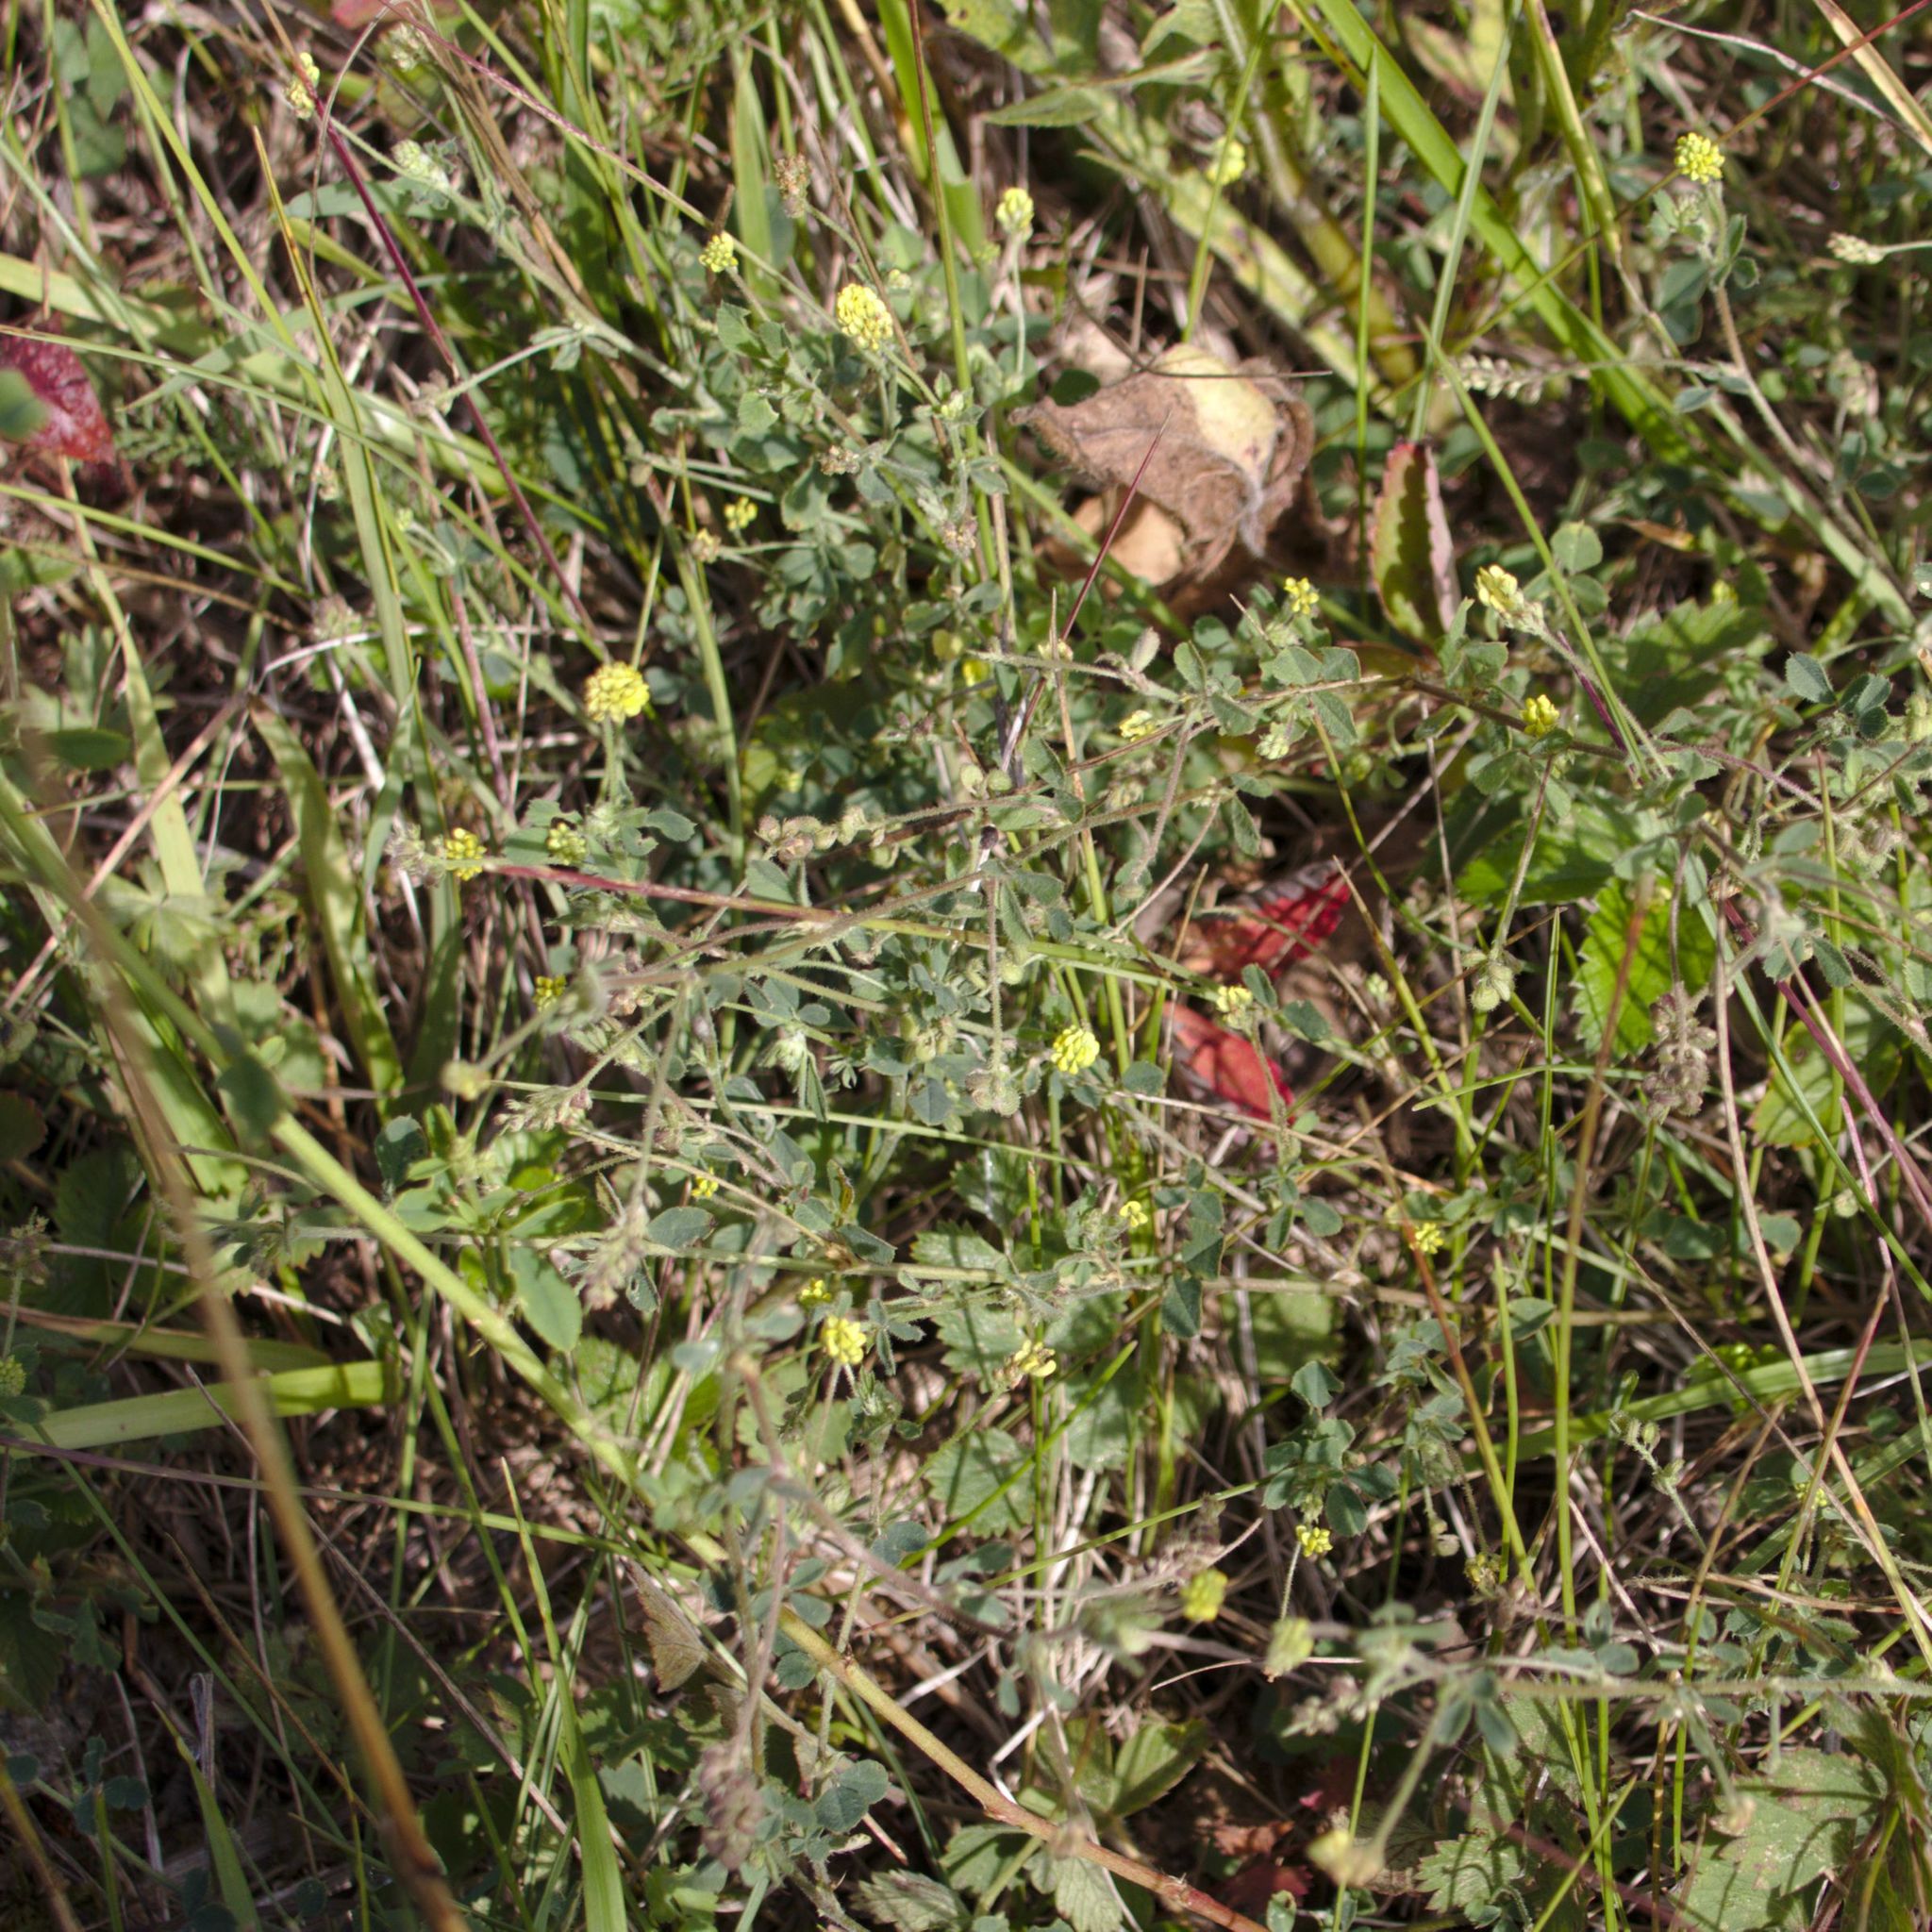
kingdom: Plantae
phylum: Tracheophyta
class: Magnoliopsida
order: Fabales
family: Fabaceae
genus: Medicago
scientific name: Medicago lupulina
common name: Black medick
